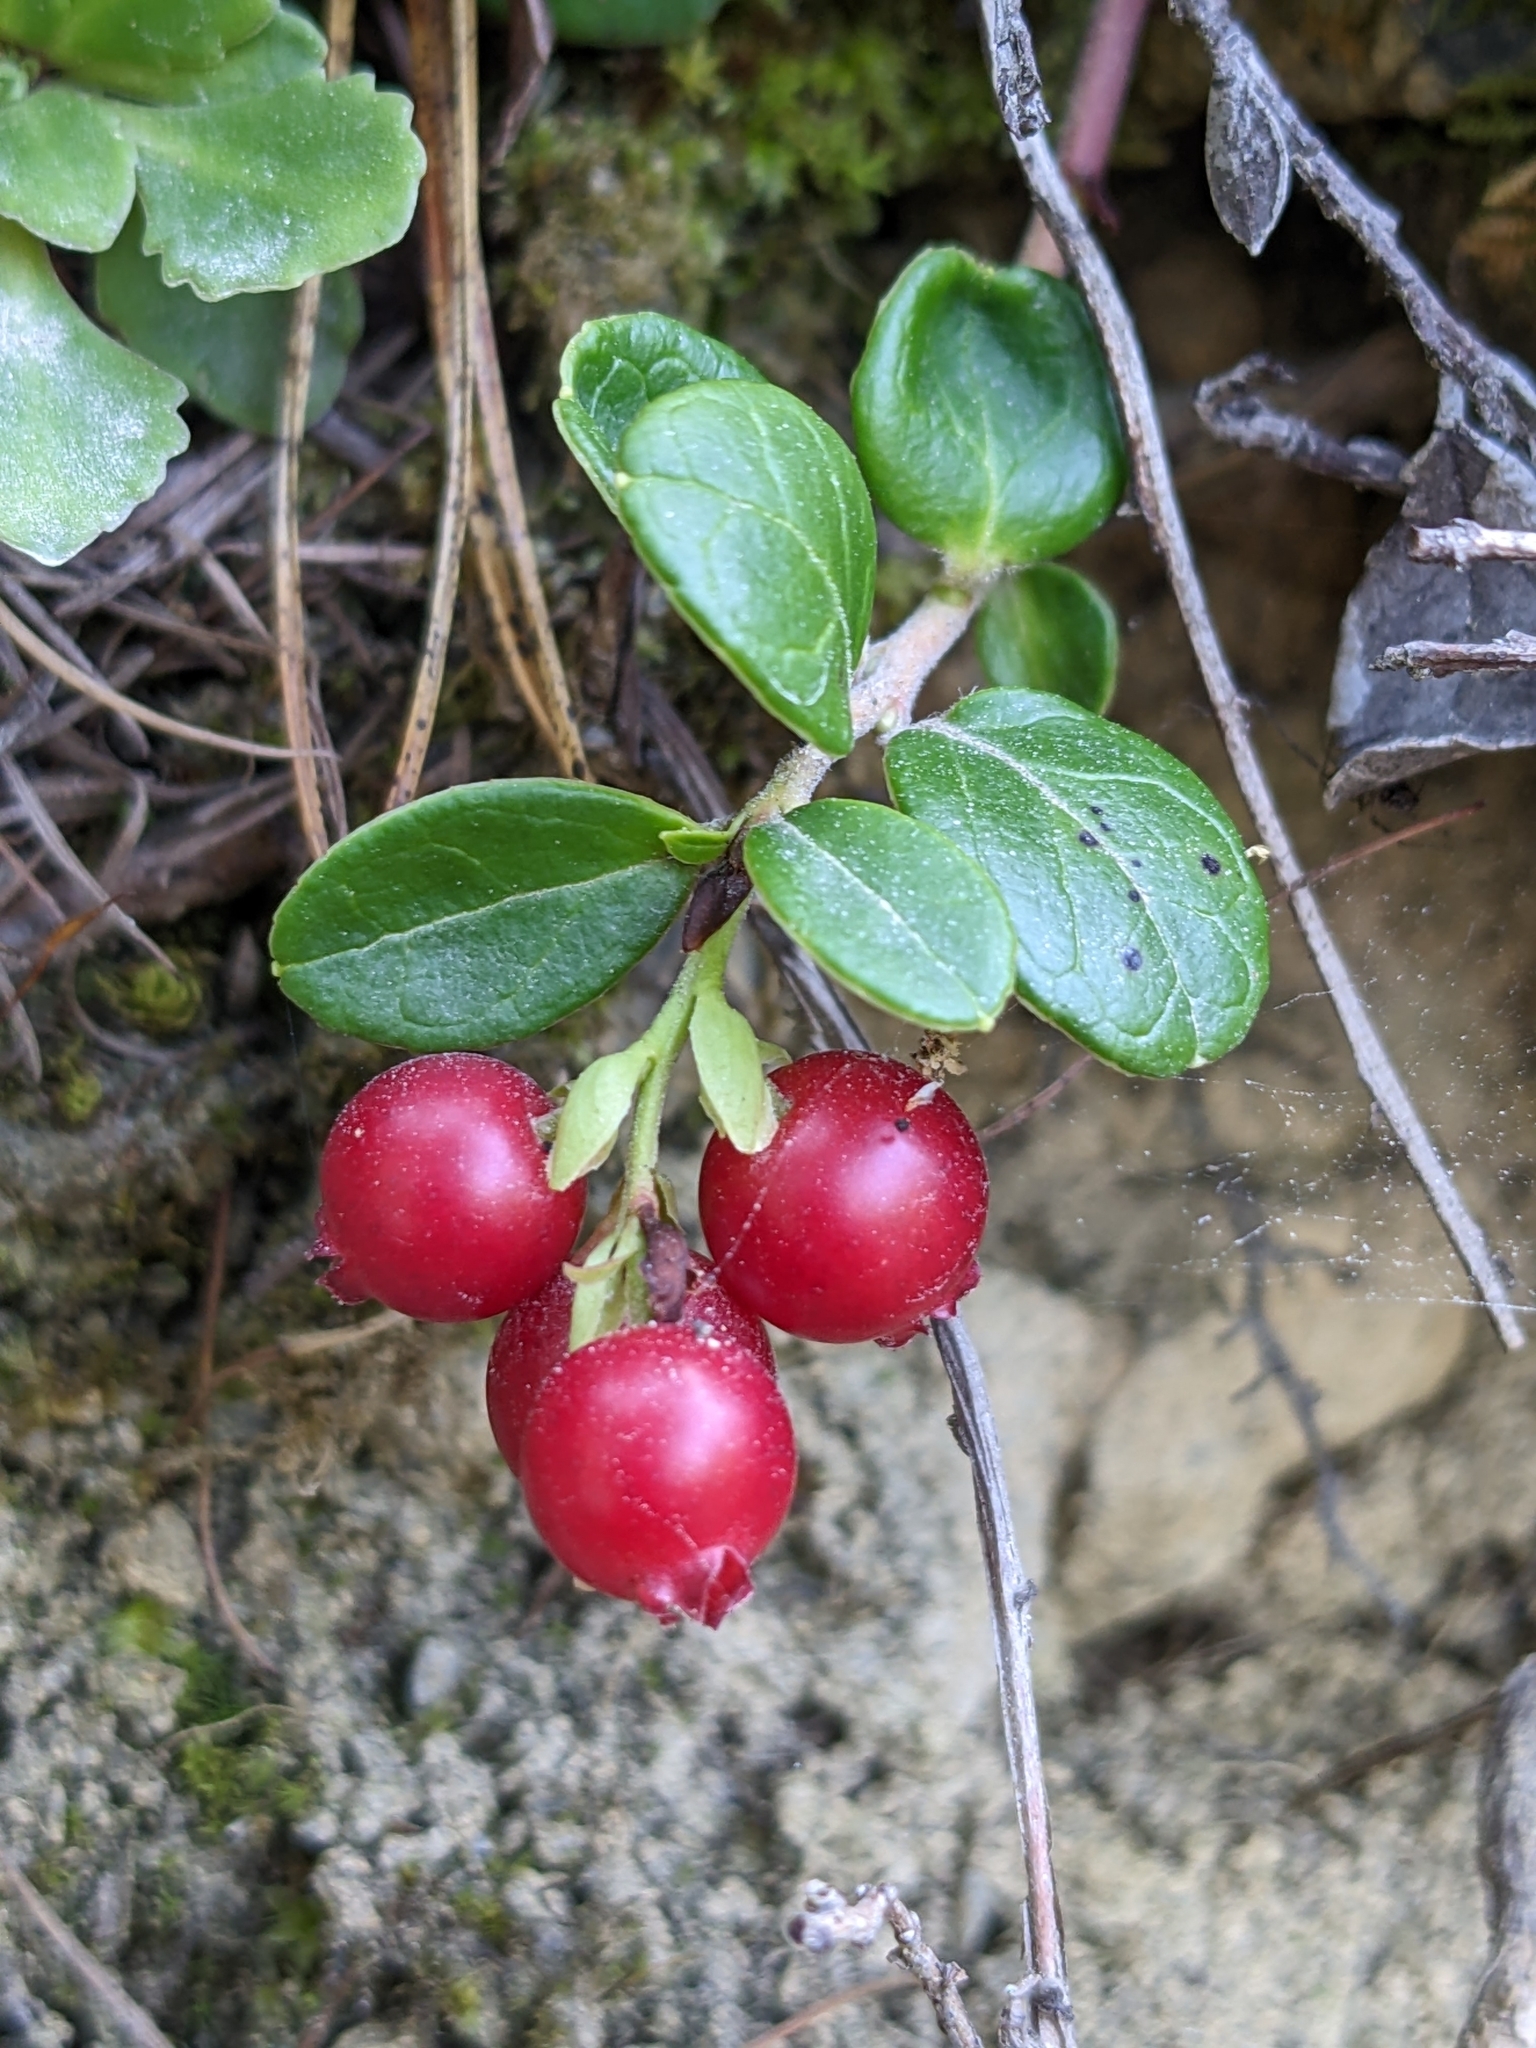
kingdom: Plantae
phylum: Tracheophyta
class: Magnoliopsida
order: Ericales
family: Ericaceae
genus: Vaccinium
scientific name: Vaccinium vitis-idaea
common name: Cowberry
